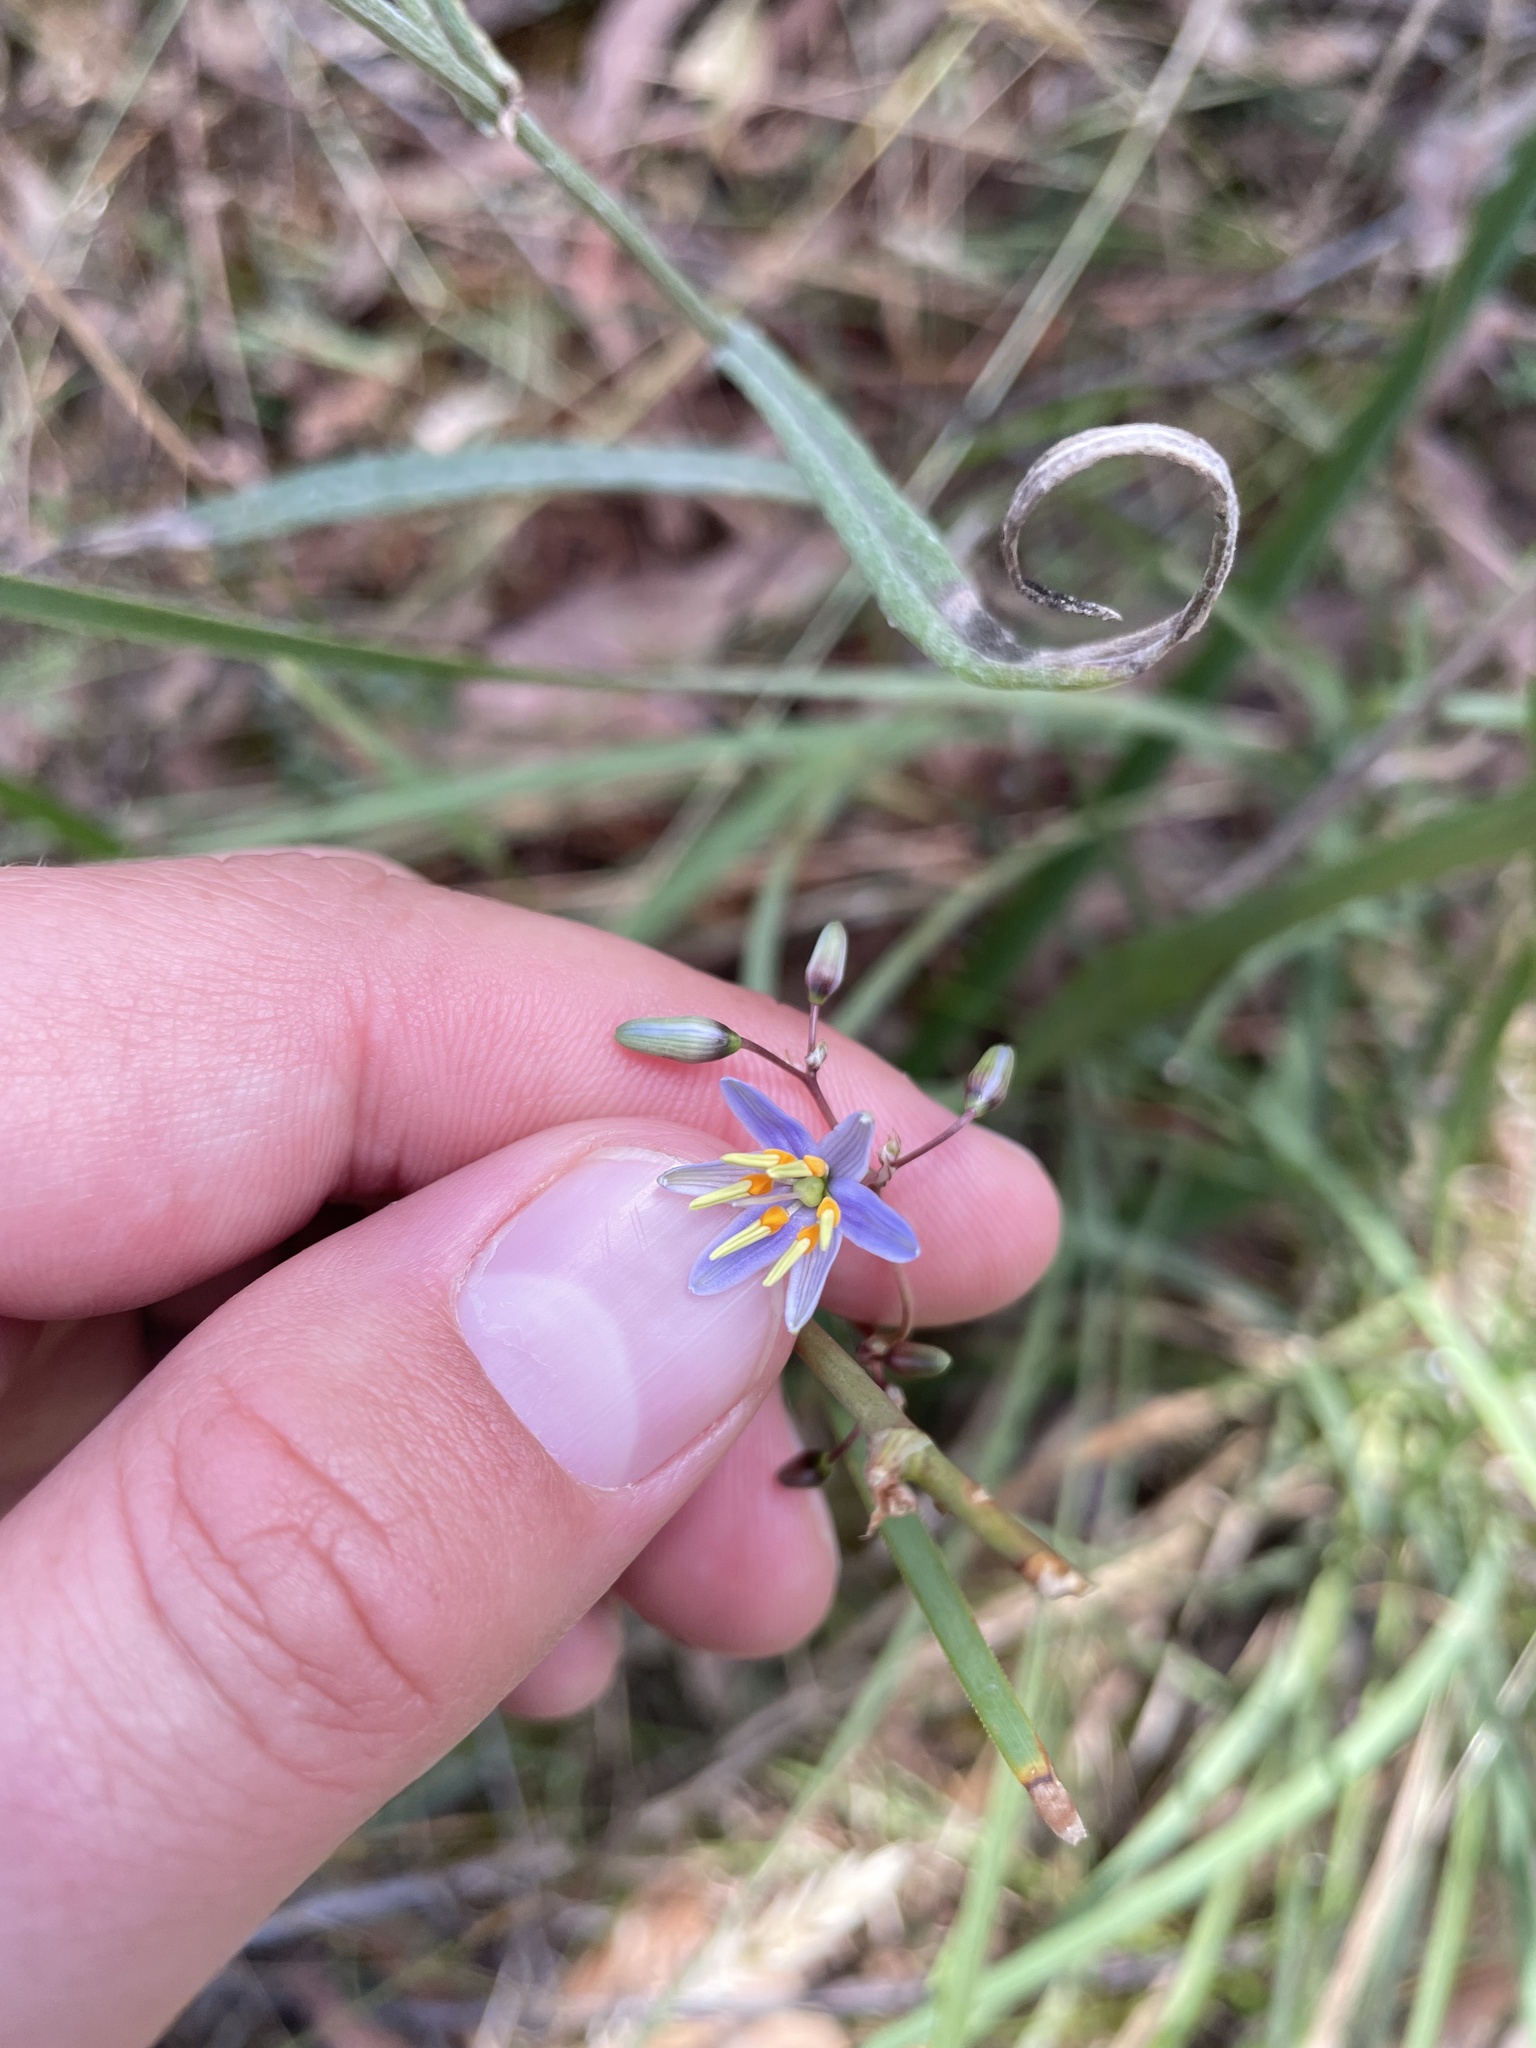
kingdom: Plantae
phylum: Tracheophyta
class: Liliopsida
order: Asparagales
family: Asphodelaceae
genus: Dianella
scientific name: Dianella longifolia
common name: Blue flax-lily
